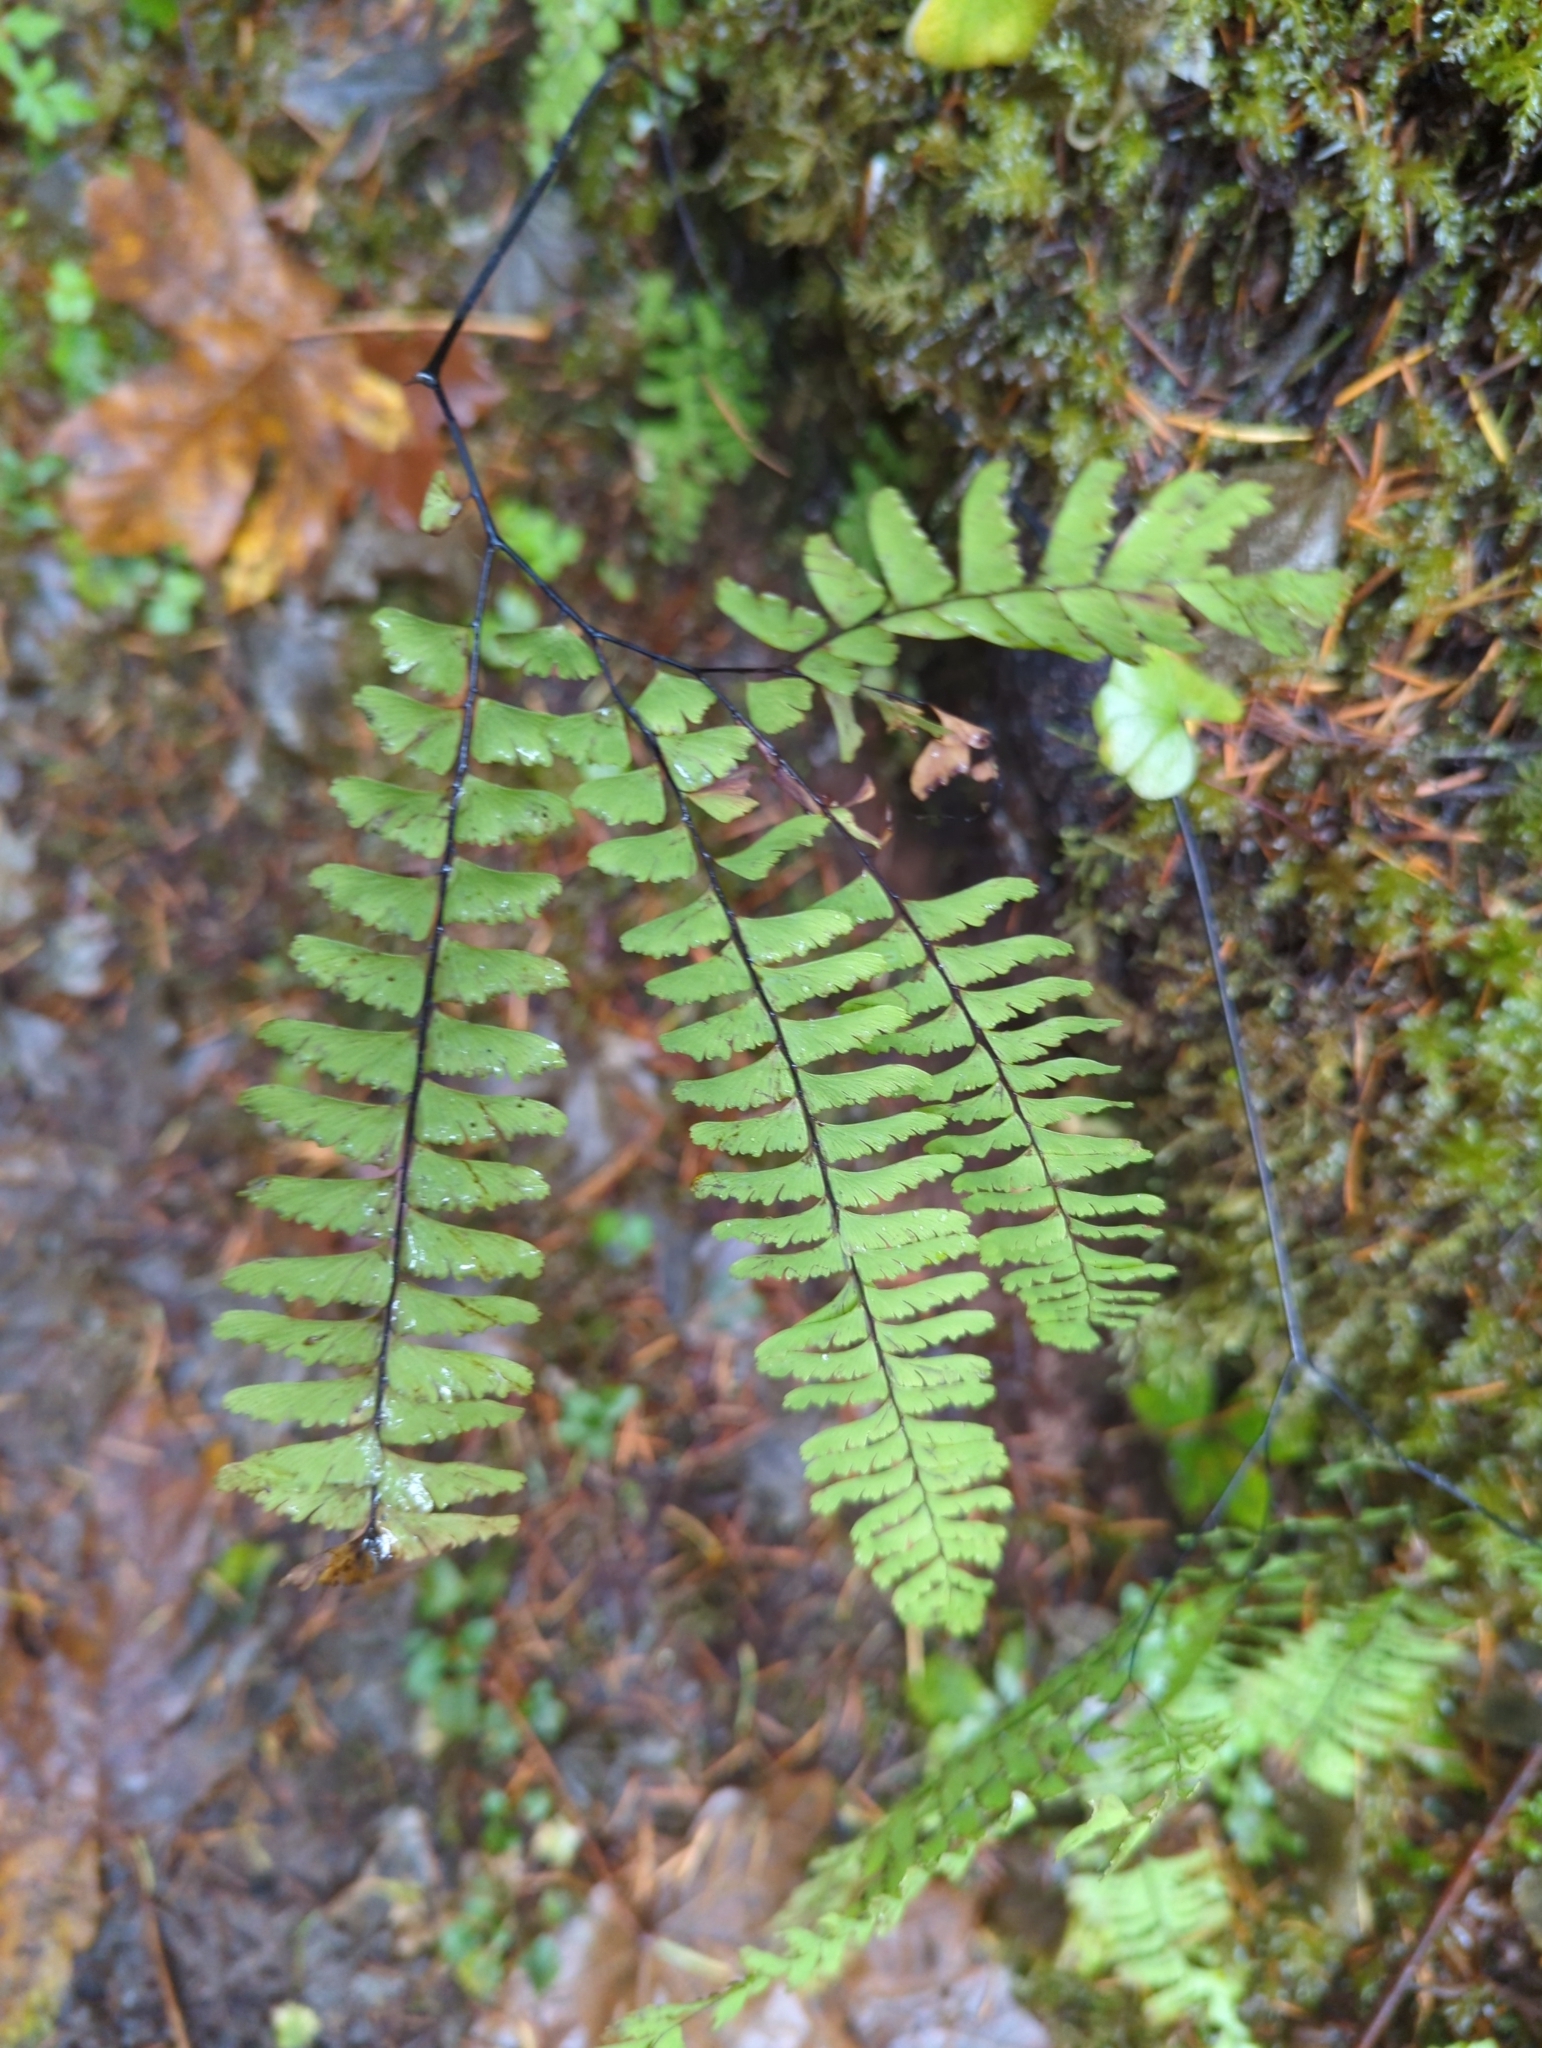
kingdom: Plantae
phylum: Tracheophyta
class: Polypodiopsida
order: Polypodiales
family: Pteridaceae
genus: Adiantum
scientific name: Adiantum aleuticum
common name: Aleutian maidenhair fern
